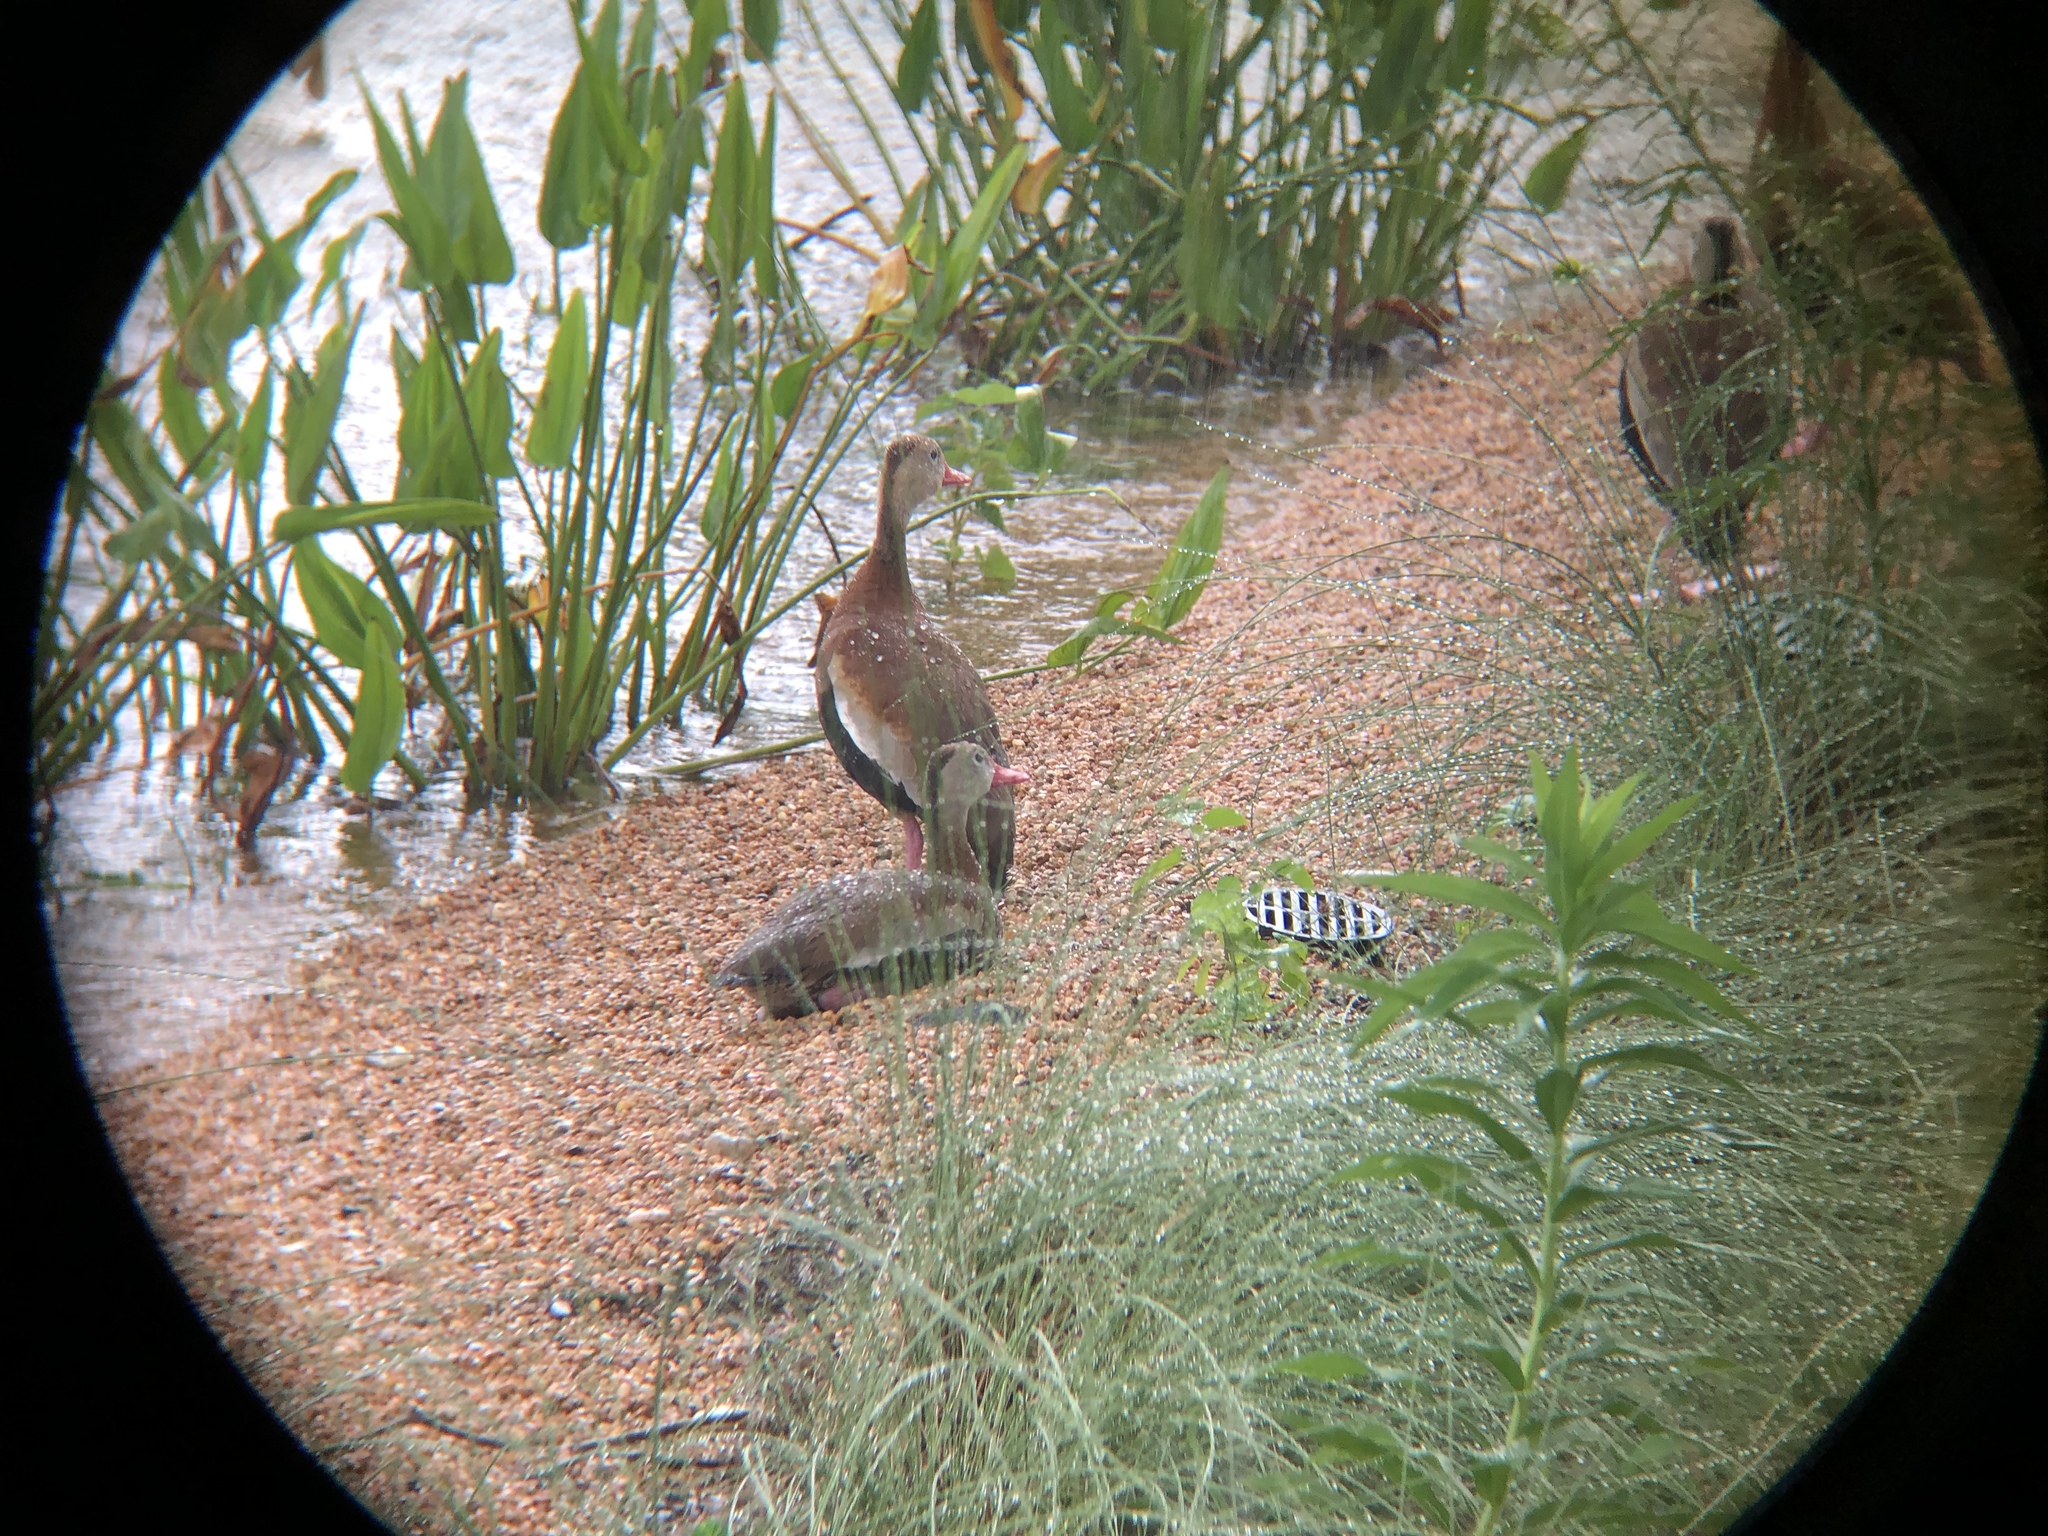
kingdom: Animalia
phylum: Chordata
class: Aves
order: Anseriformes
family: Anatidae
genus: Dendrocygna
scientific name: Dendrocygna autumnalis
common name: Black-bellied whistling duck
